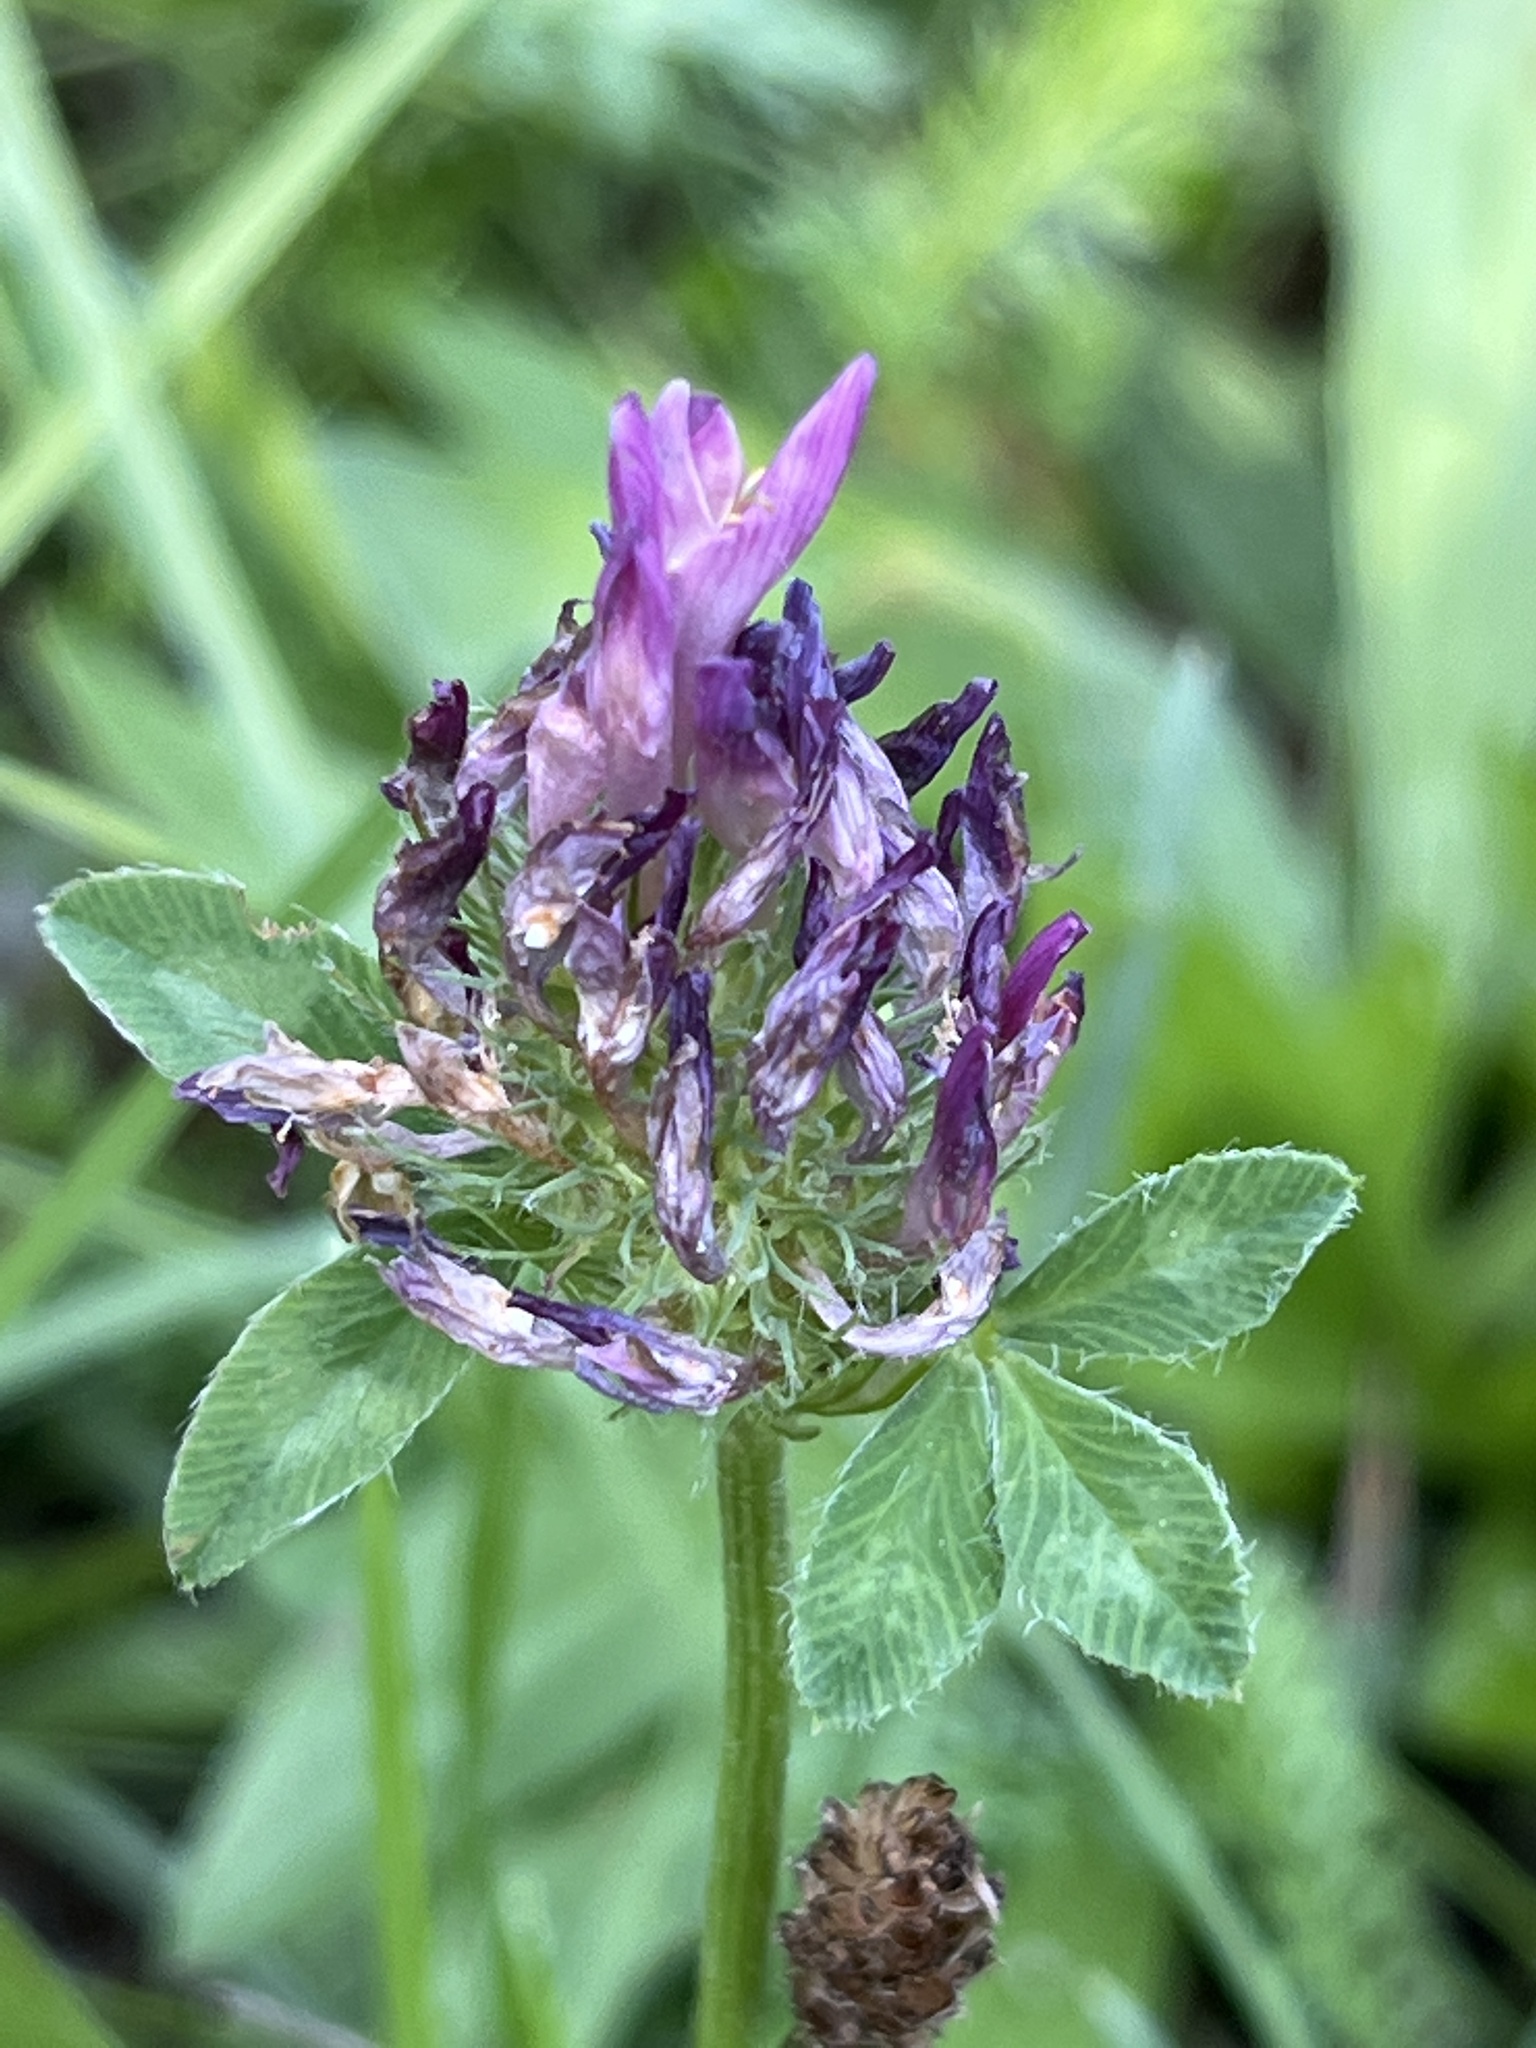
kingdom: Plantae
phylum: Tracheophyta
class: Magnoliopsida
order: Fabales
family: Fabaceae
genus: Trifolium
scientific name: Trifolium pratense
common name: Red clover
